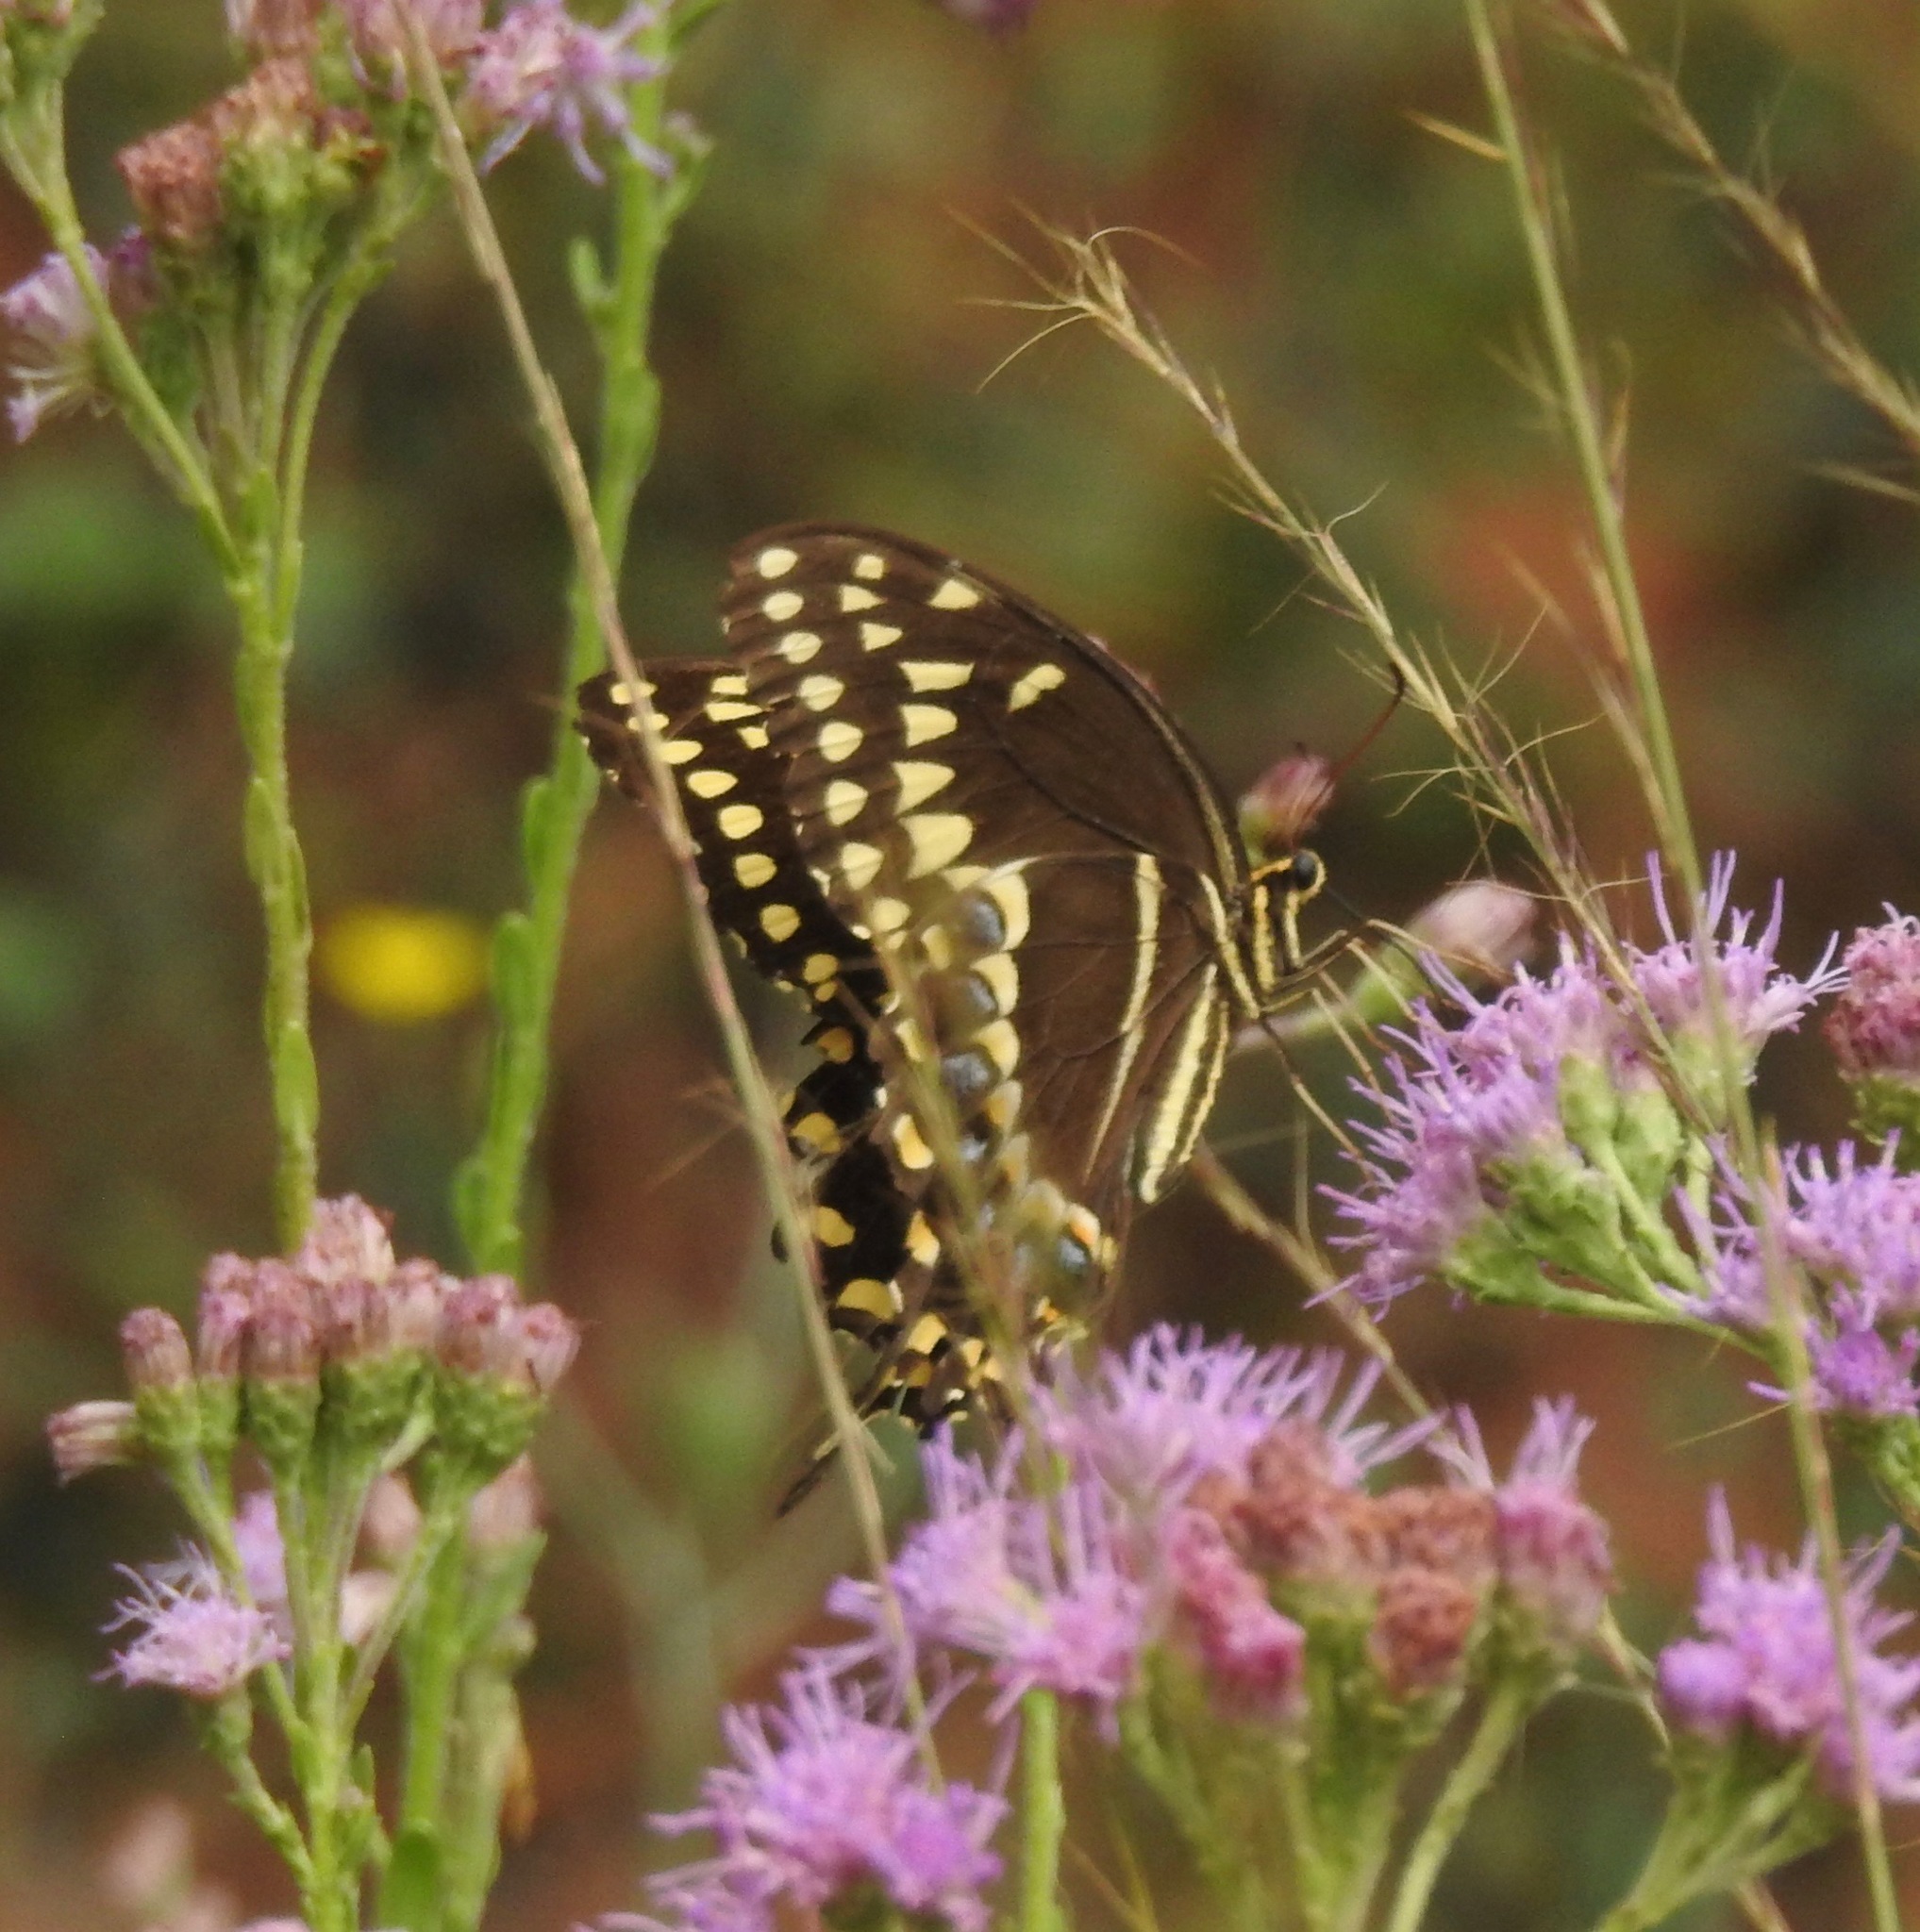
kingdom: Animalia
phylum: Arthropoda
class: Insecta
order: Lepidoptera
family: Papilionidae
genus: Papilio
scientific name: Papilio palamedes
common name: Palamedes swallowtail
